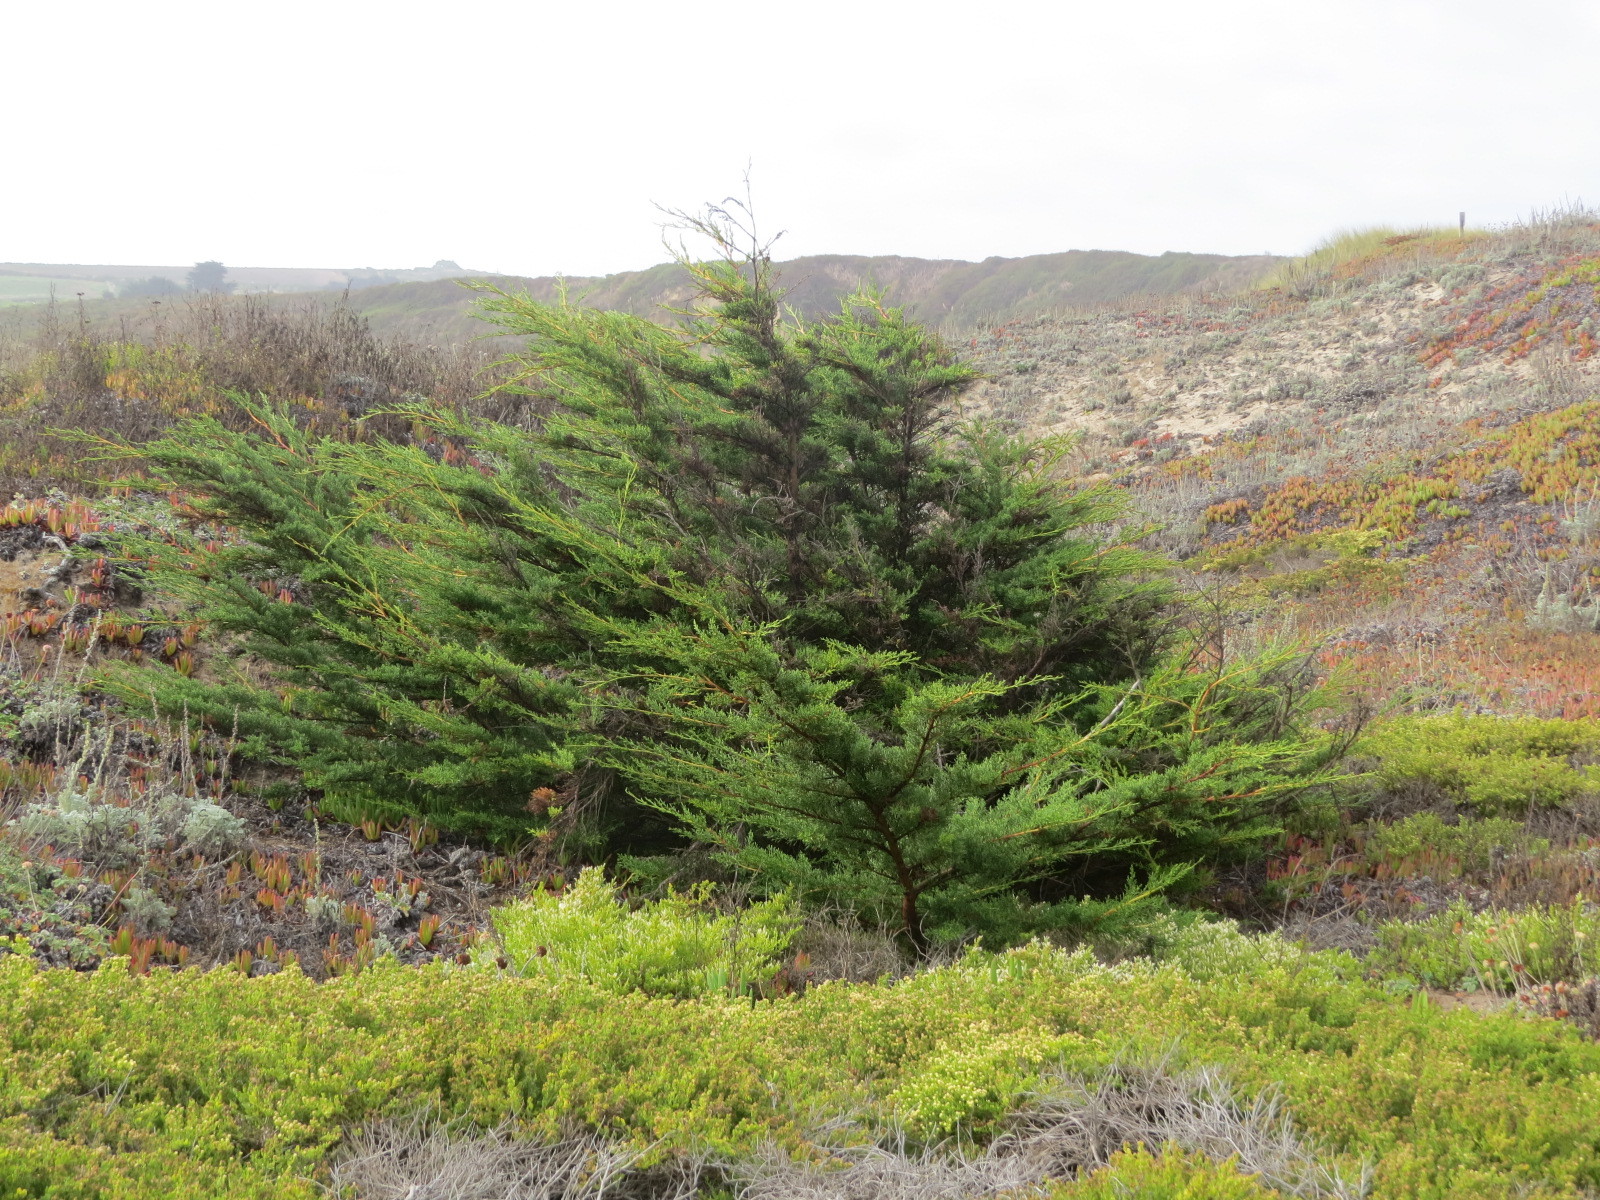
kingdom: Plantae
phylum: Tracheophyta
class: Pinopsida
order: Pinales
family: Cupressaceae
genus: Cupressus
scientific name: Cupressus macrocarpa
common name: Monterey cypress
